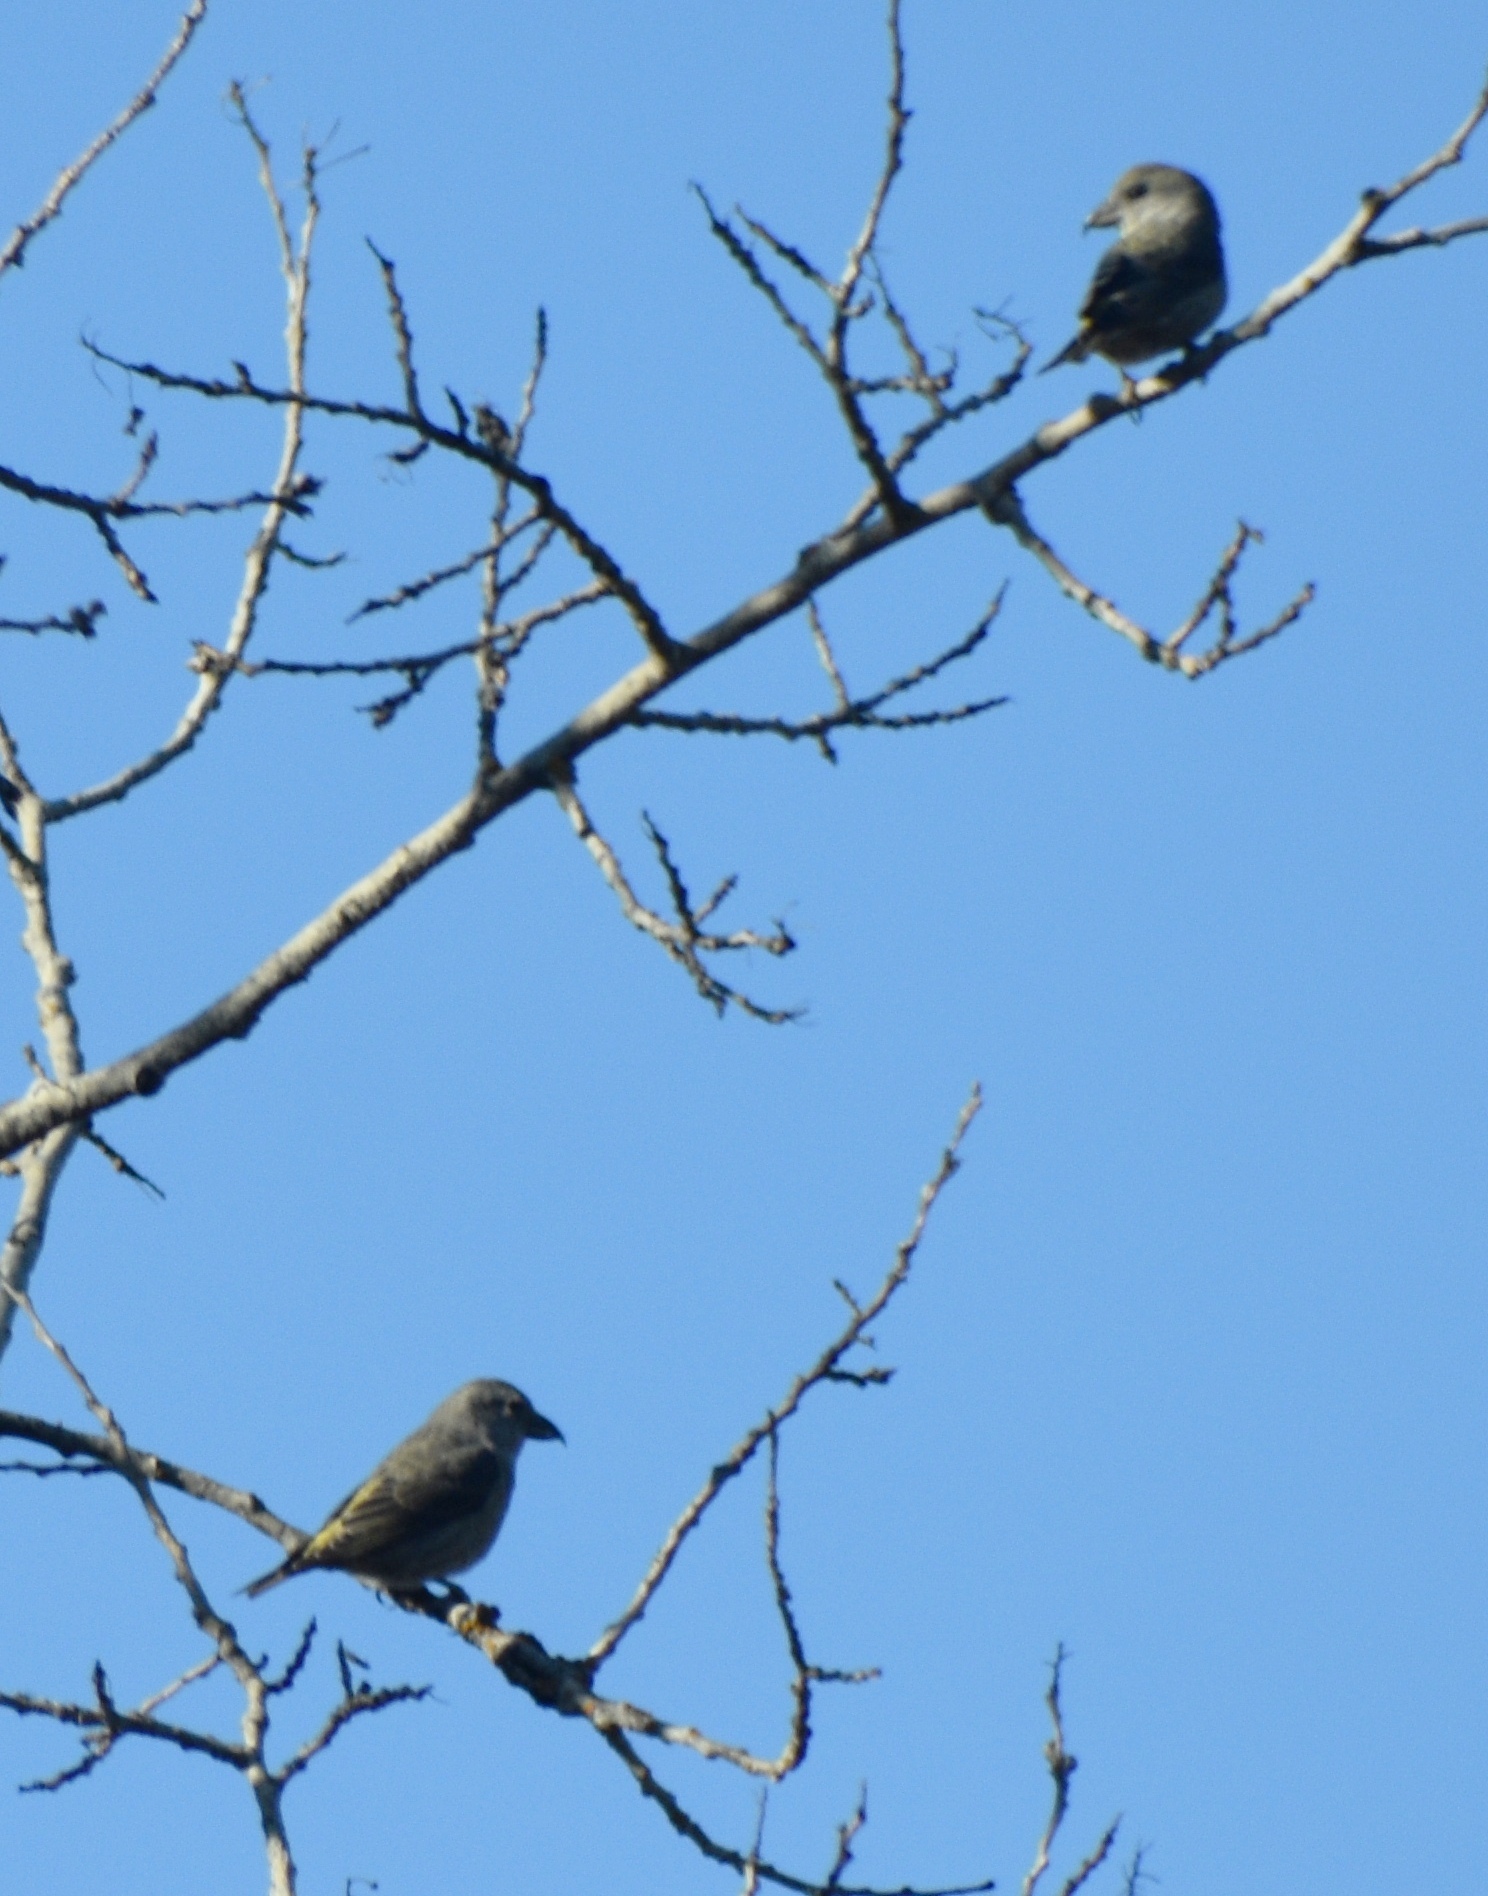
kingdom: Animalia
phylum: Chordata
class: Aves
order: Passeriformes
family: Fringillidae
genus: Loxia
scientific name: Loxia curvirostra
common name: Red crossbill
